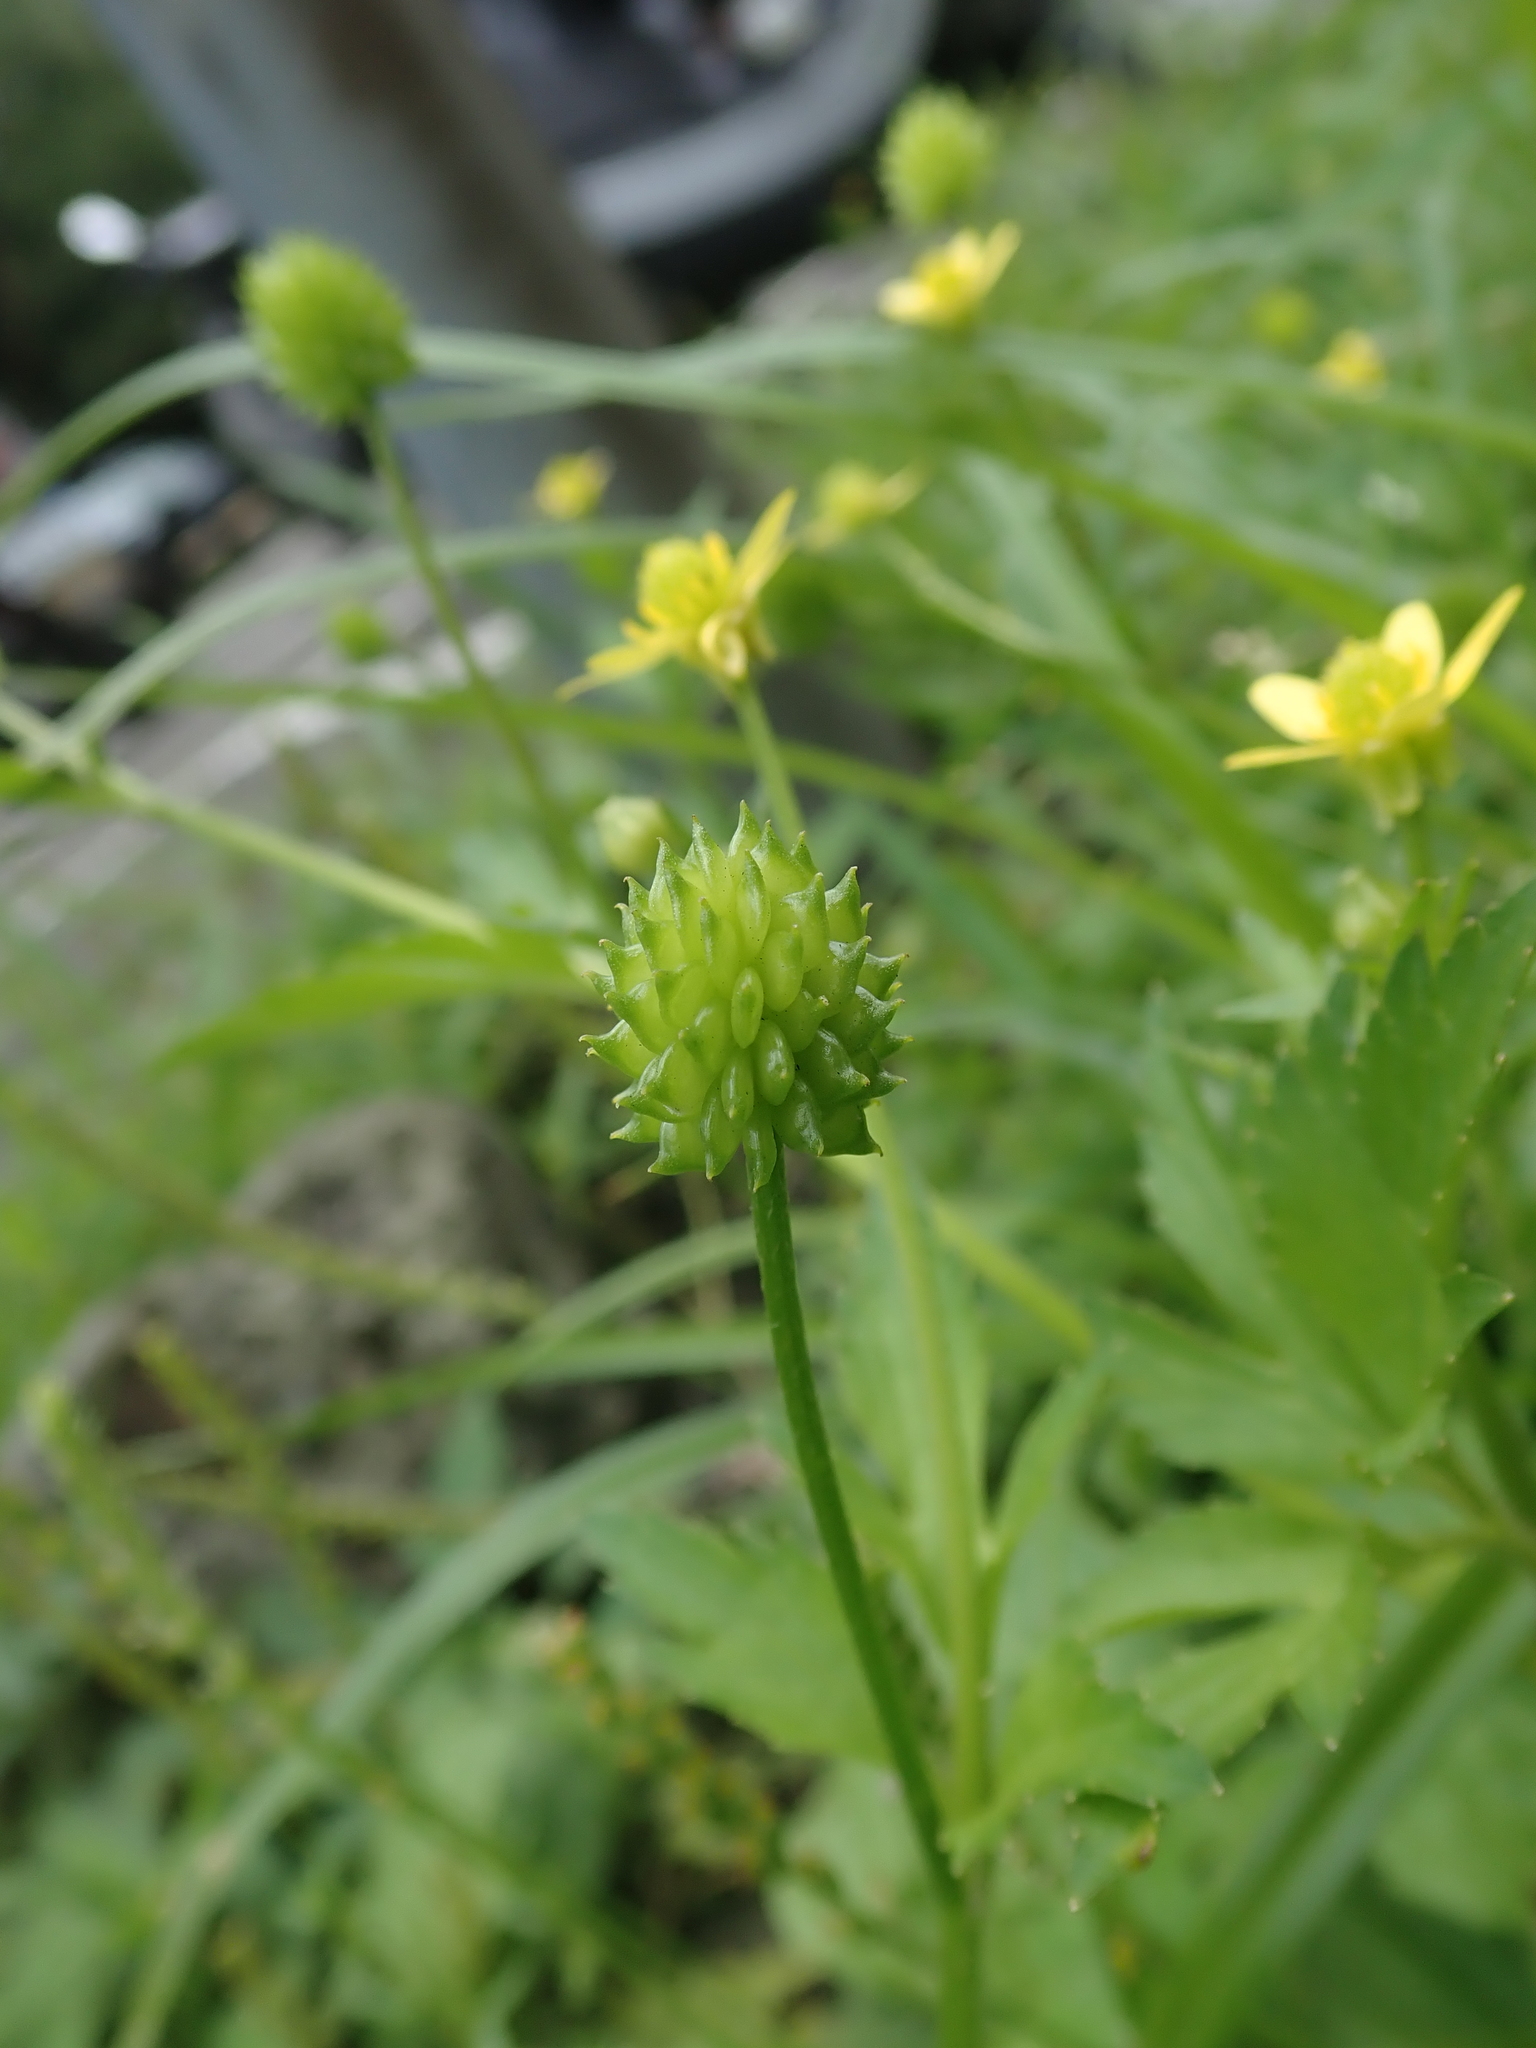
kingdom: Plantae
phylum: Tracheophyta
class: Magnoliopsida
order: Ranunculales
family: Ranunculaceae
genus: Ranunculus
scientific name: Ranunculus cantoniensis
